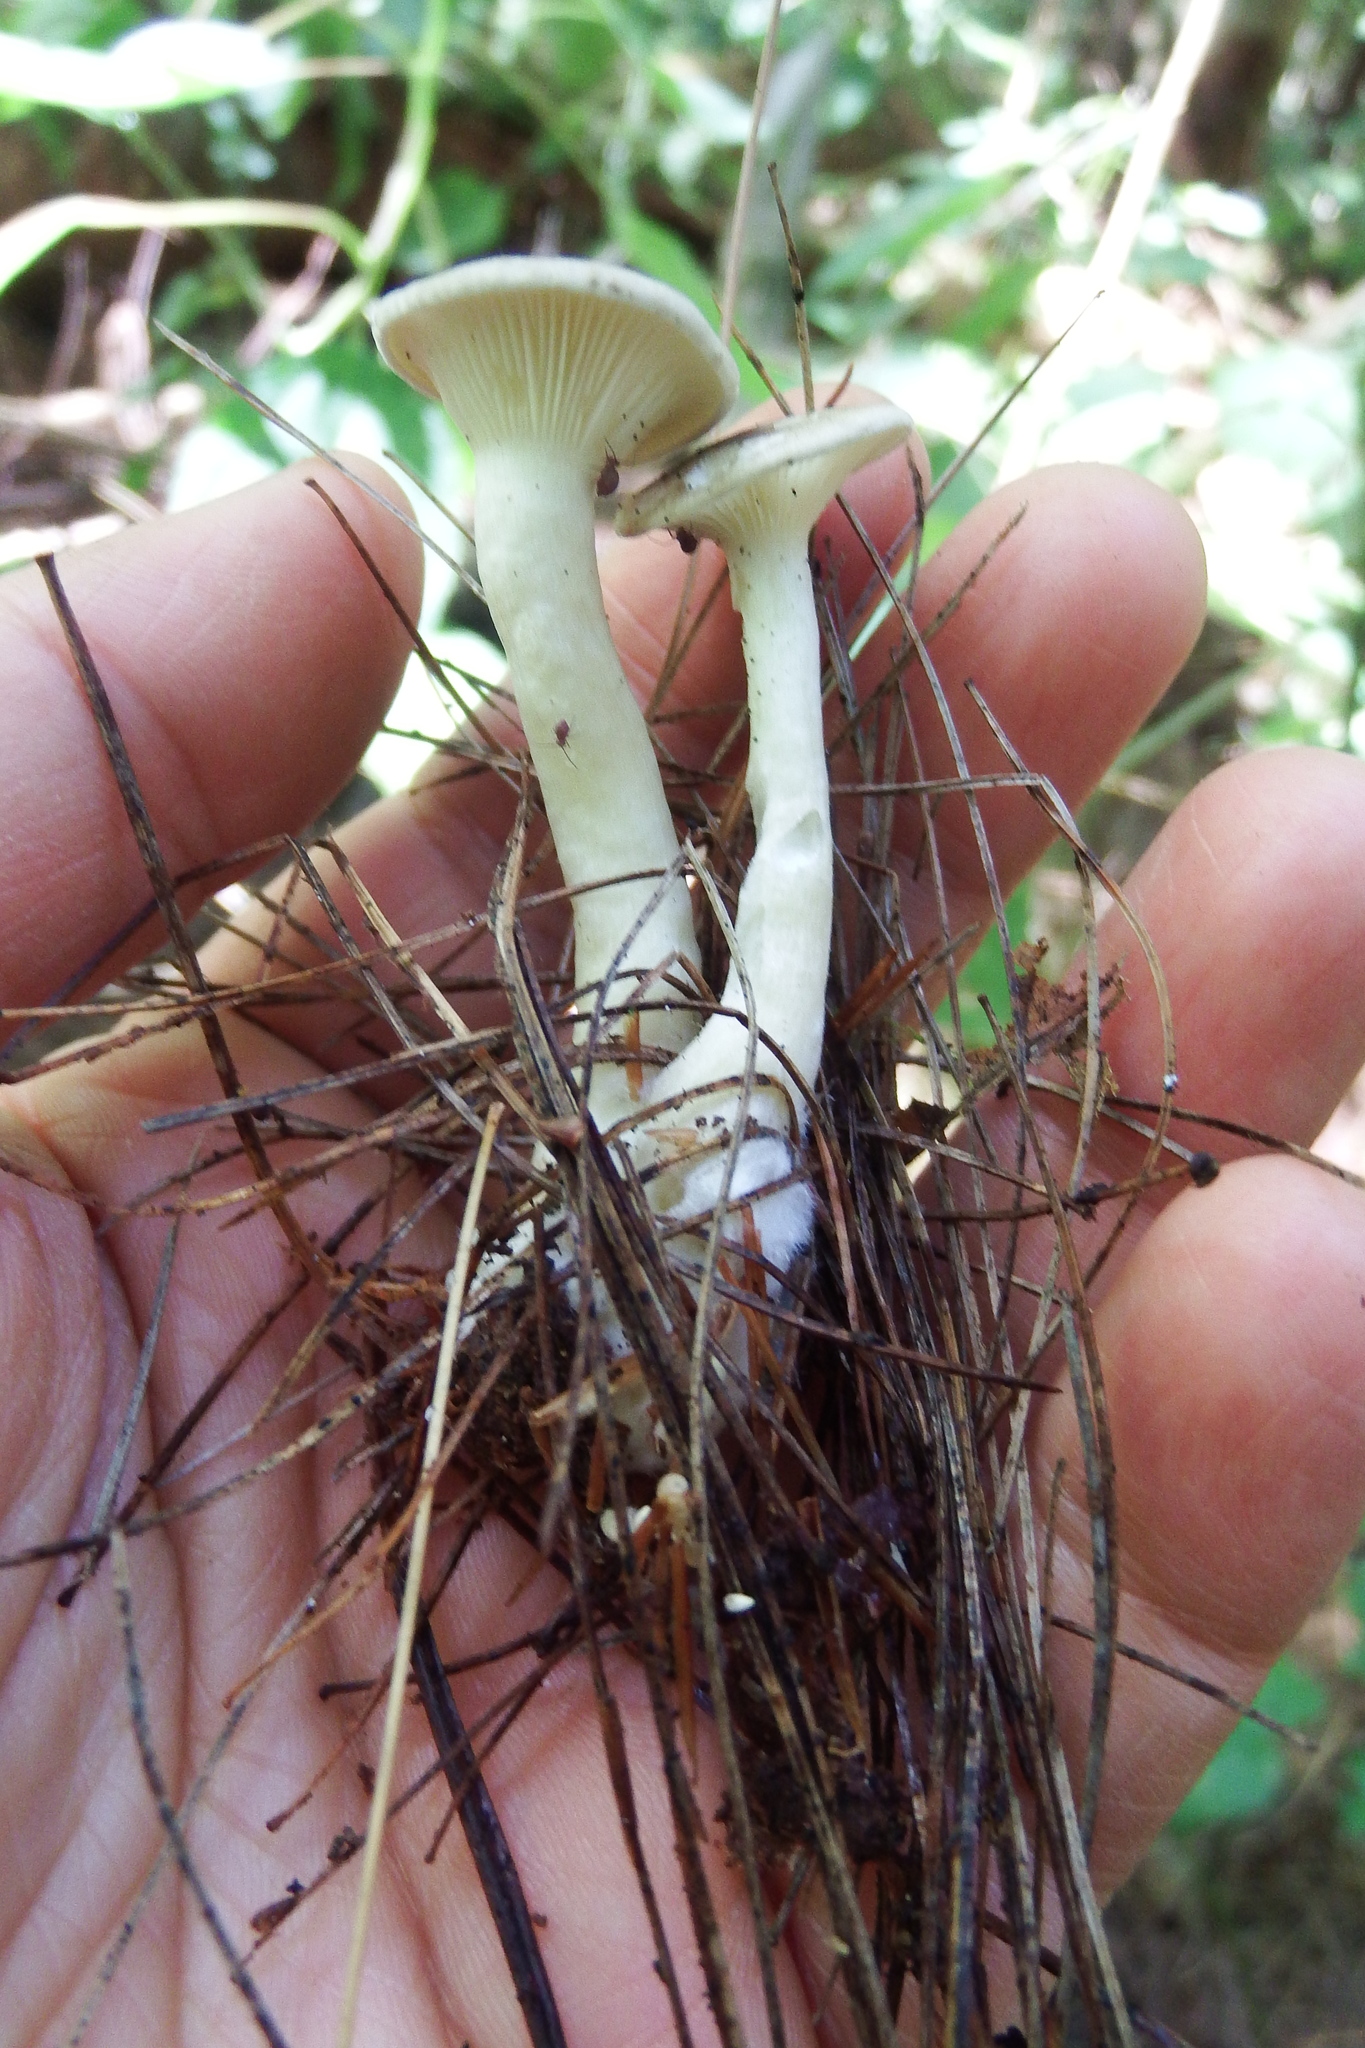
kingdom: Fungi
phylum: Basidiomycota
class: Agaricomycetes
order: Agaricales
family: Hygrophoraceae
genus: Ampulloclitocybe
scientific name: Ampulloclitocybe clavipes
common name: Club foot
